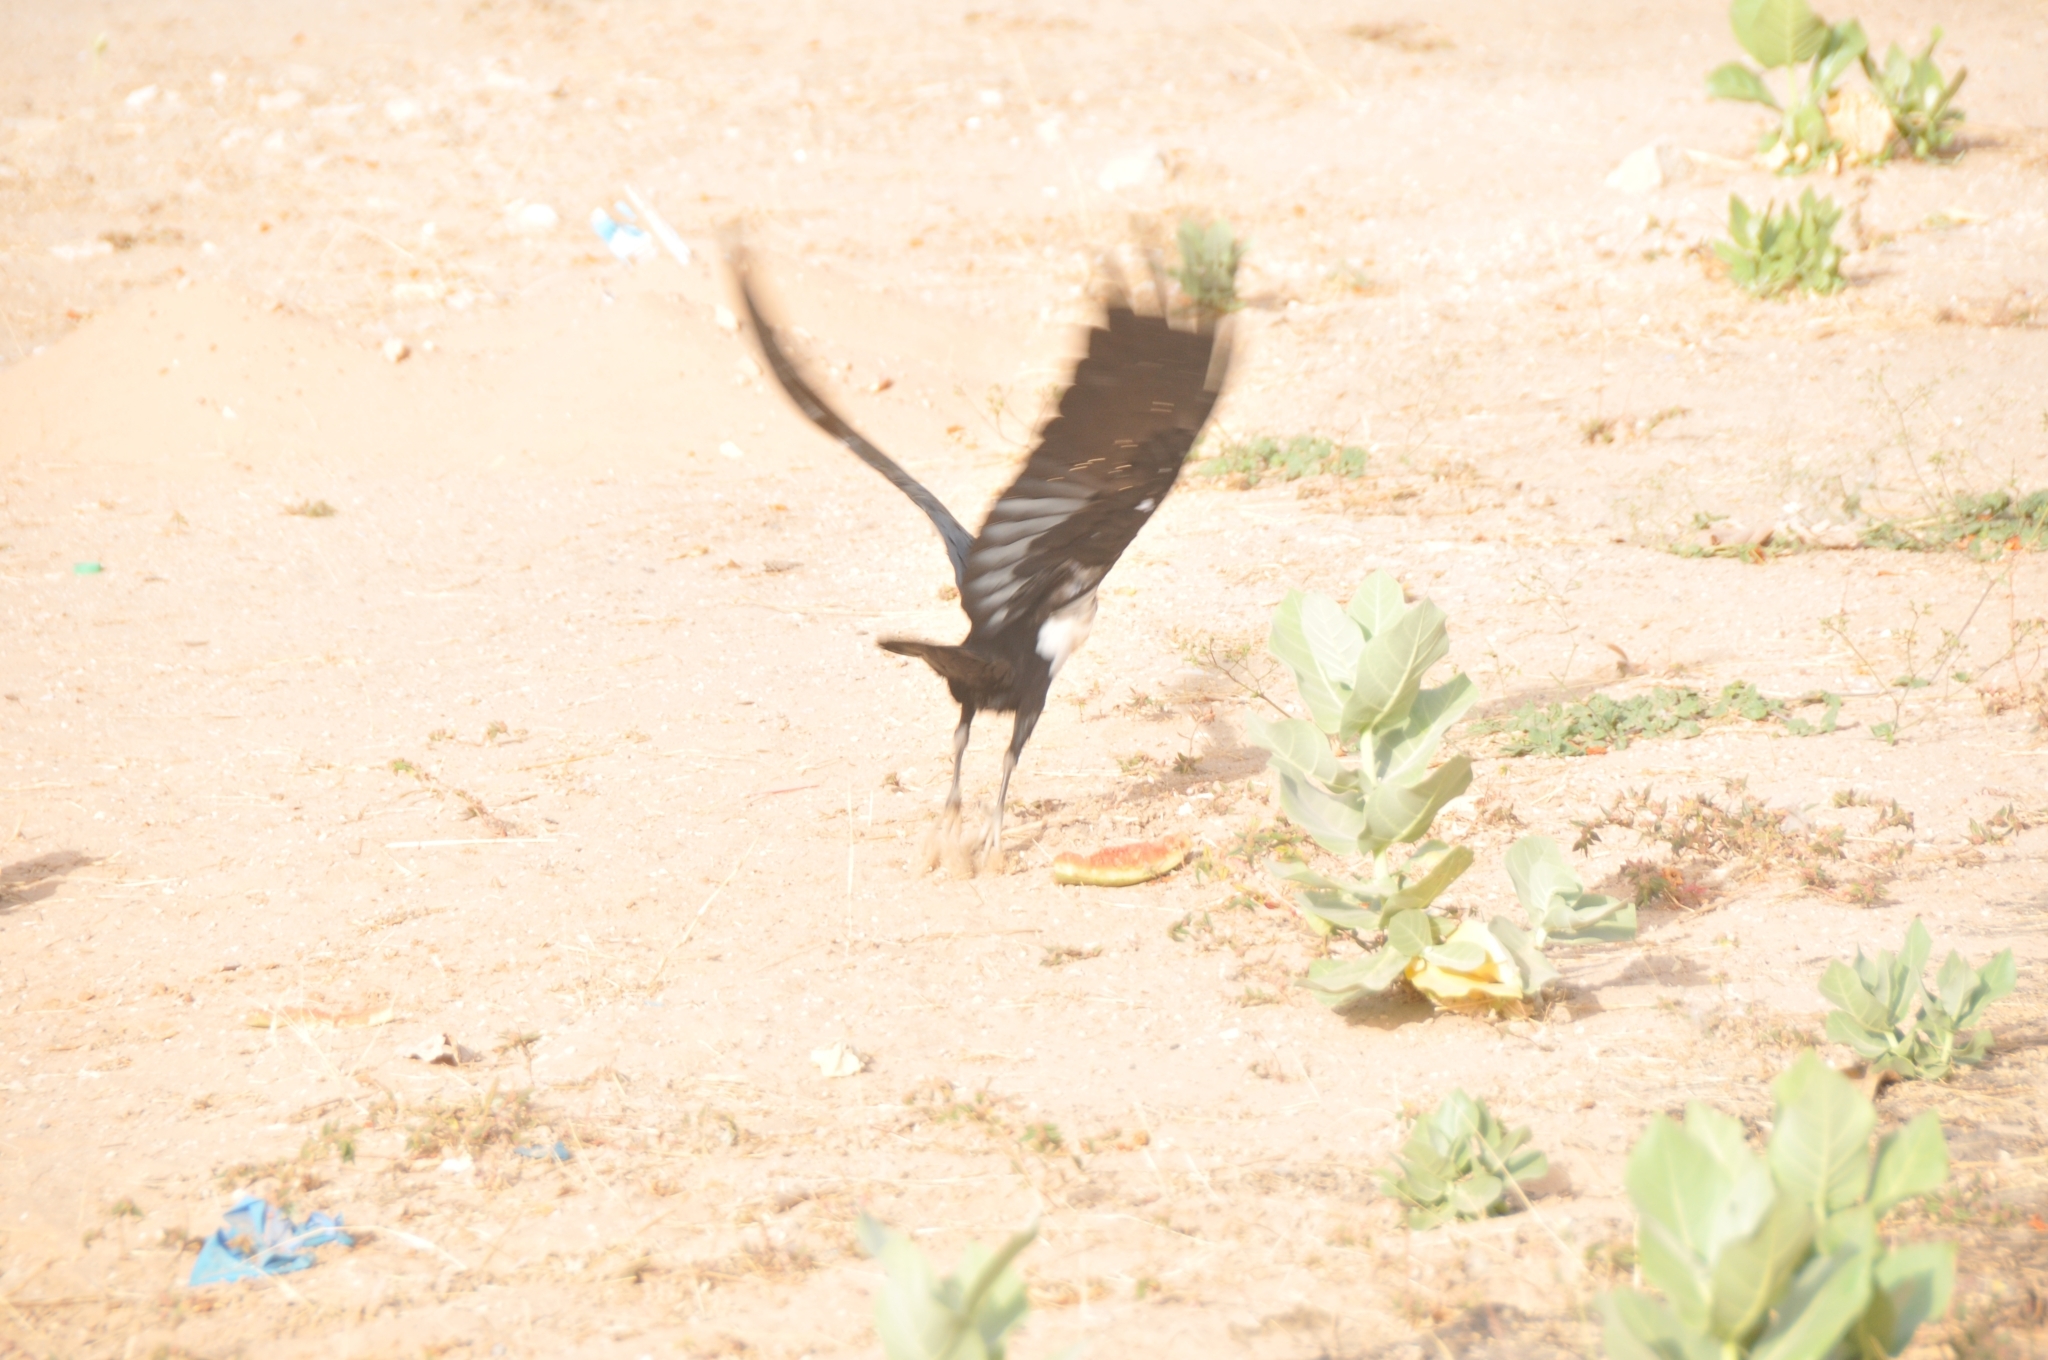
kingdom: Animalia
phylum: Chordata
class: Aves
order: Passeriformes
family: Corvidae
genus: Corvus
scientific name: Corvus albus
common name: Pied crow
